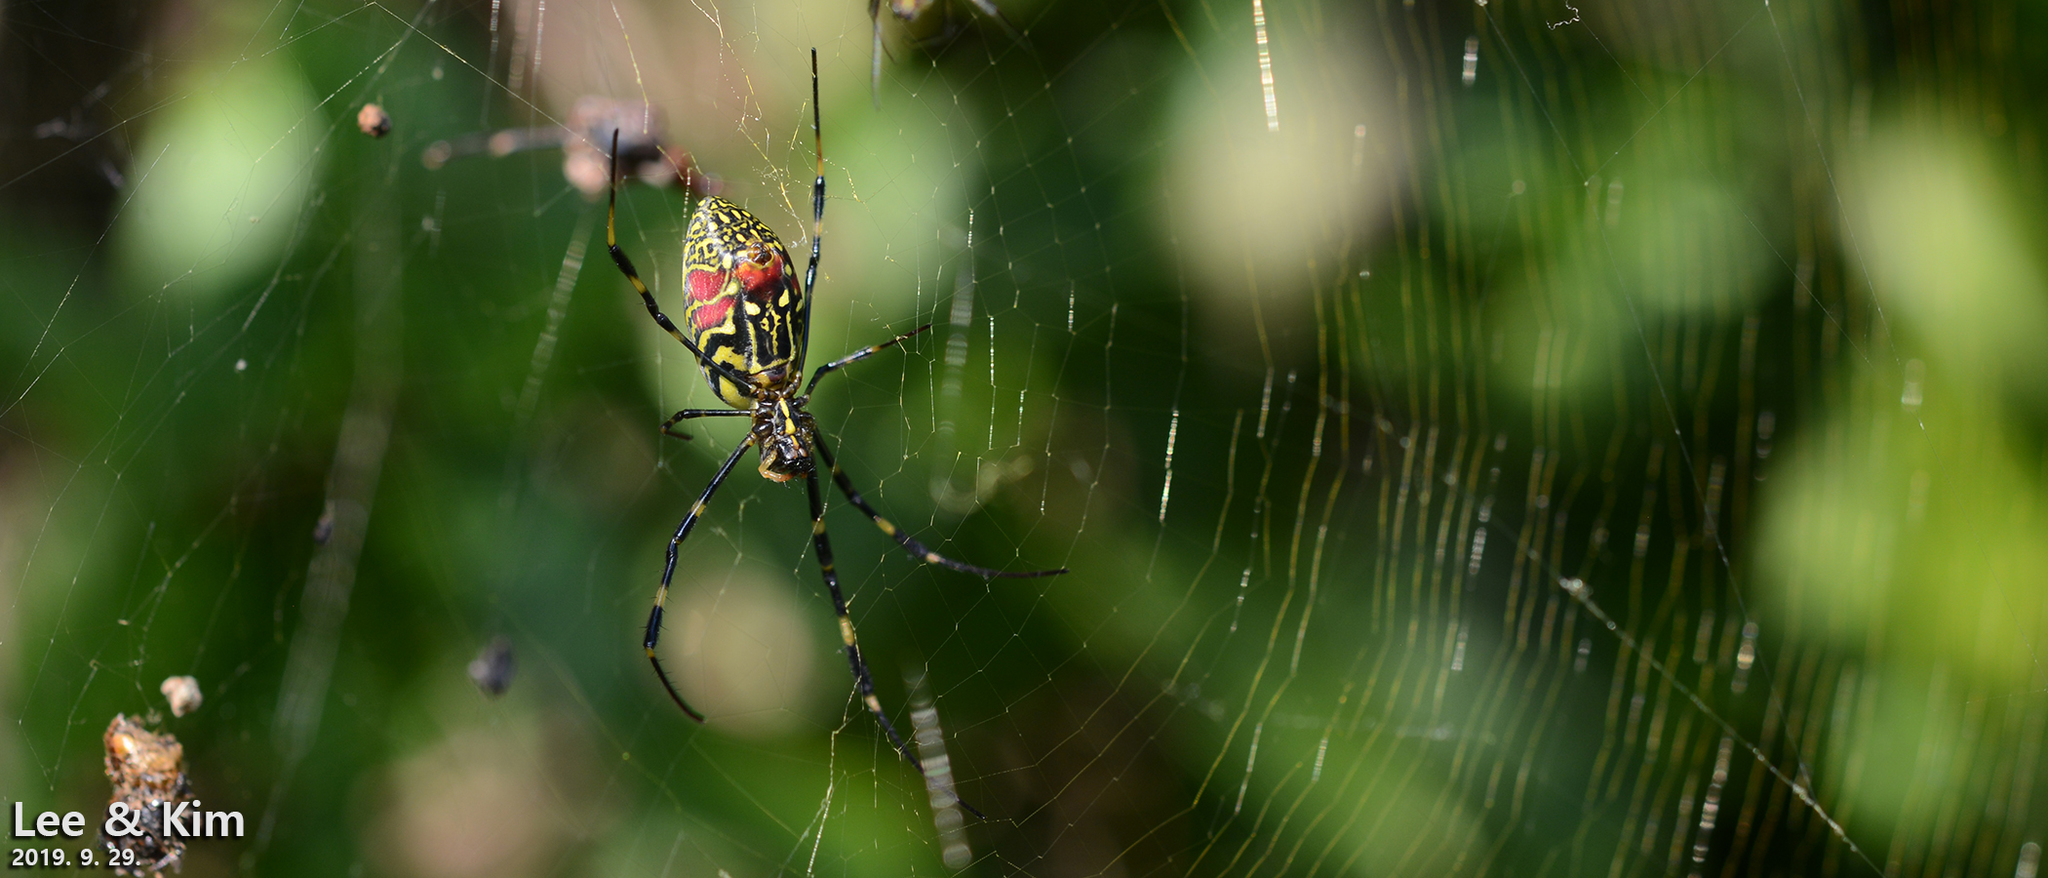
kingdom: Animalia
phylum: Arthropoda
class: Arachnida
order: Araneae
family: Araneidae
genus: Trichonephila
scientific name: Trichonephila clavata
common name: Jorō spider
